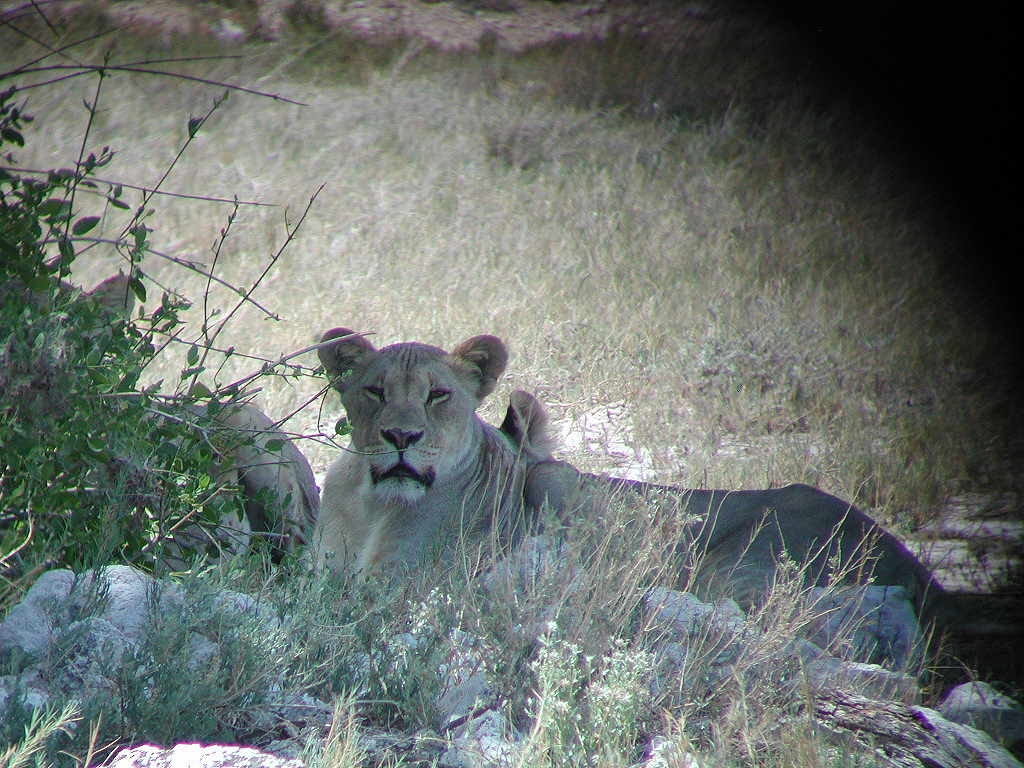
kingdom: Animalia
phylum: Chordata
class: Mammalia
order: Carnivora
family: Felidae
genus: Panthera
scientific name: Panthera leo
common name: Lion
